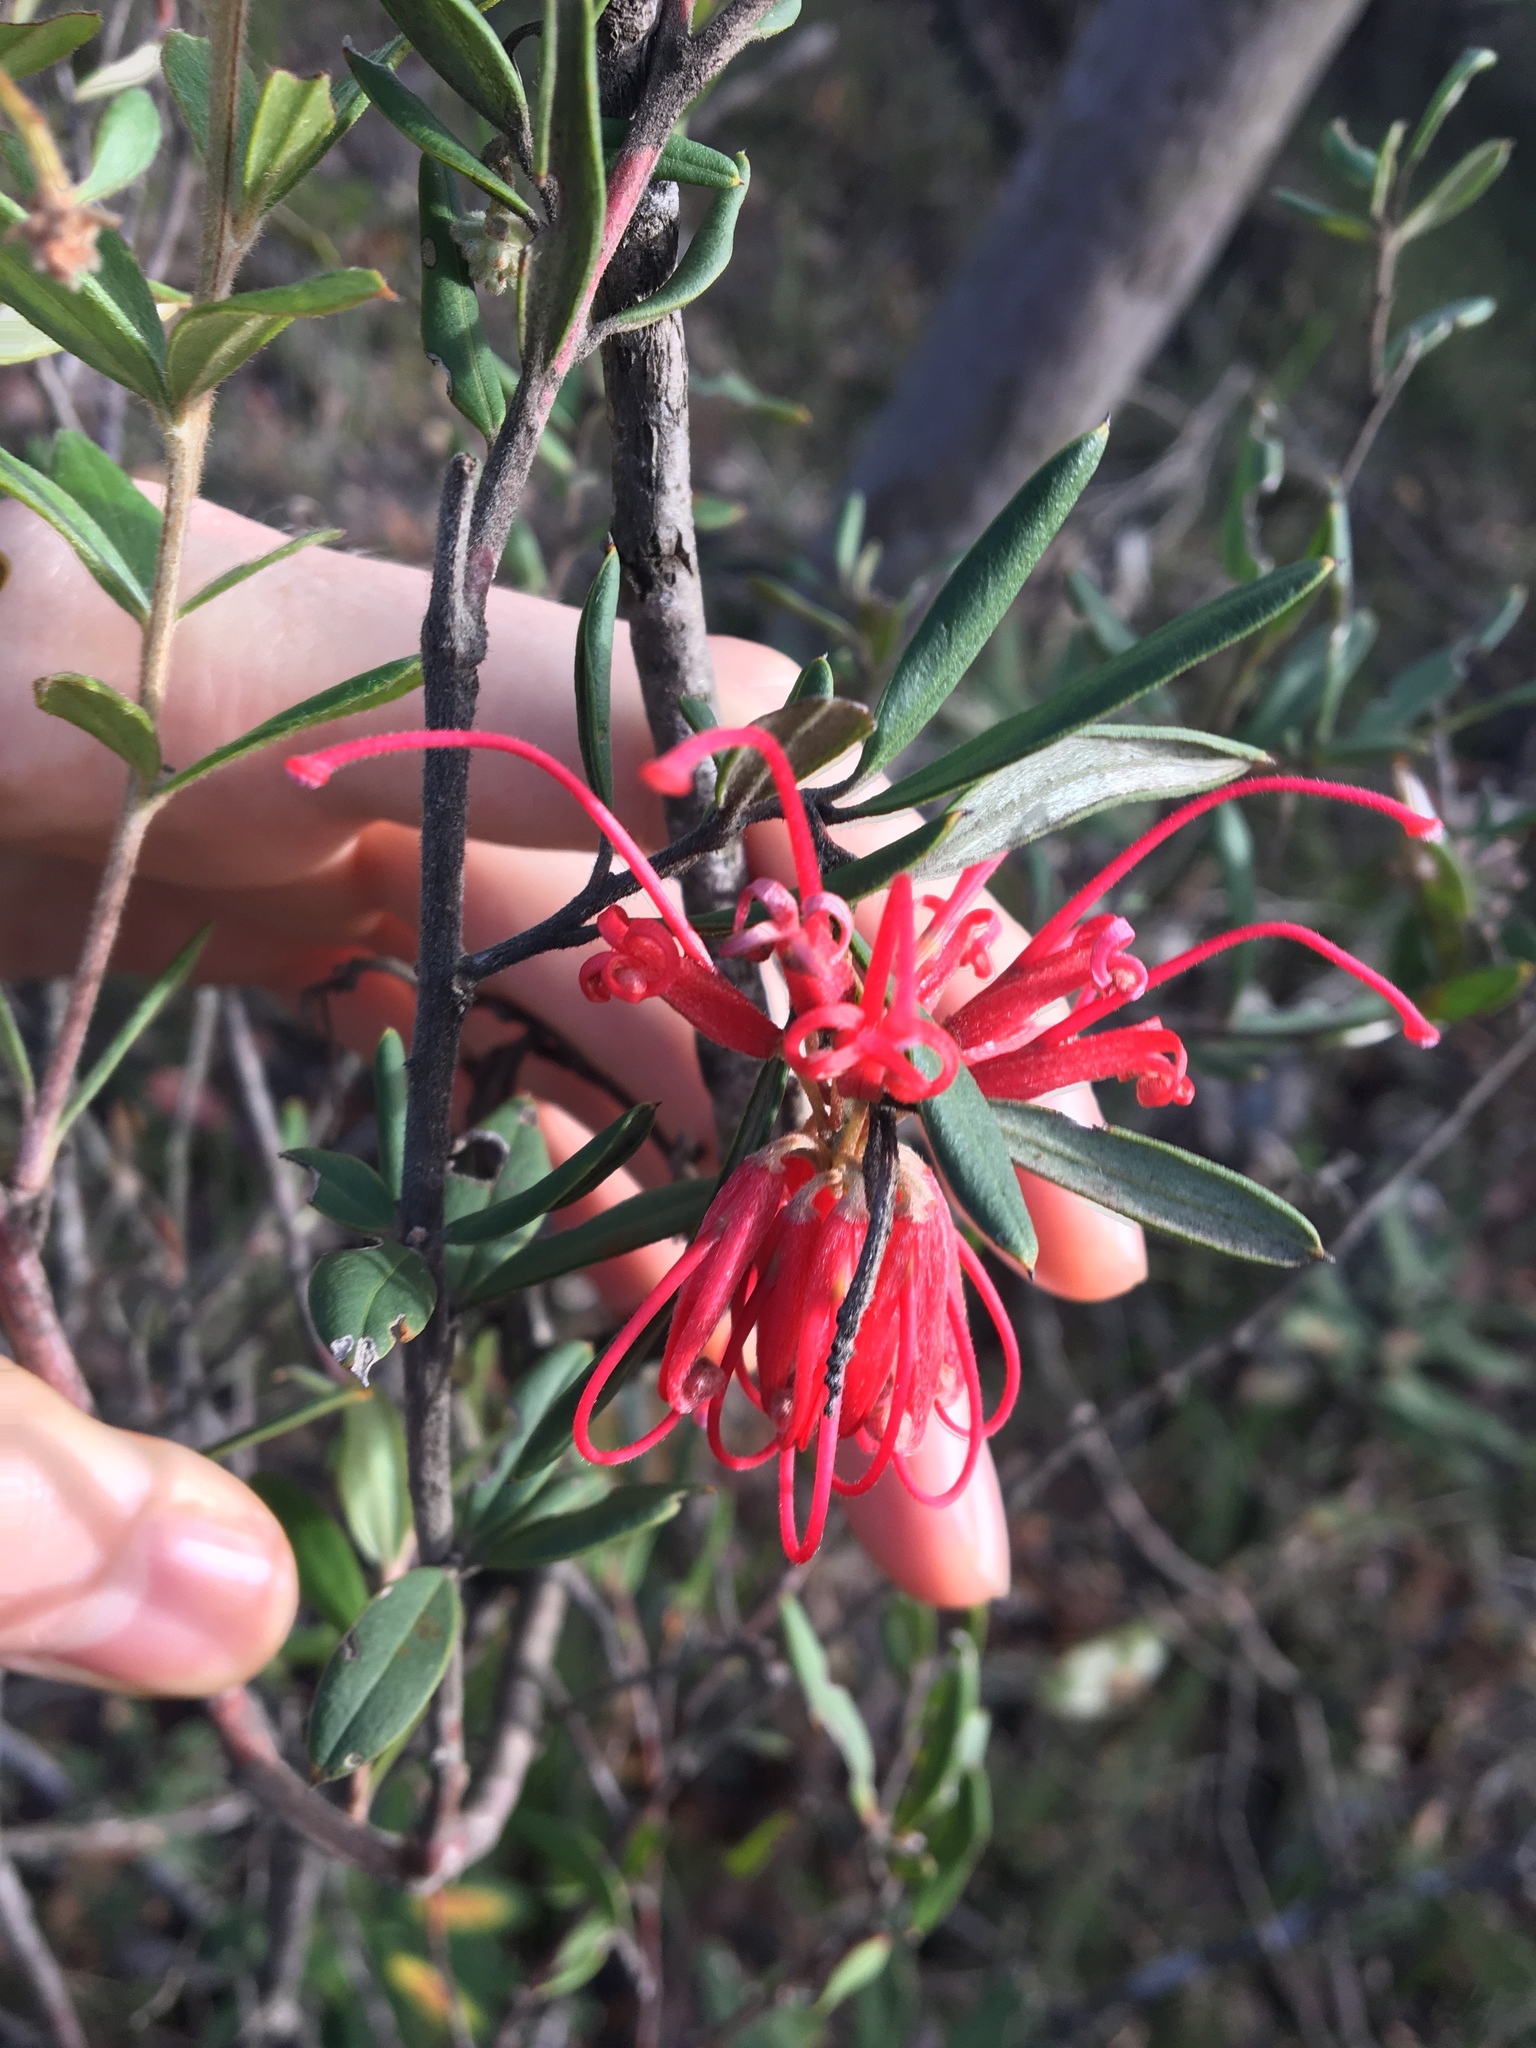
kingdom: Plantae
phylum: Tracheophyta
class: Magnoliopsida
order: Proteales
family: Proteaceae
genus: Grevillea
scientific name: Grevillea speciosa
